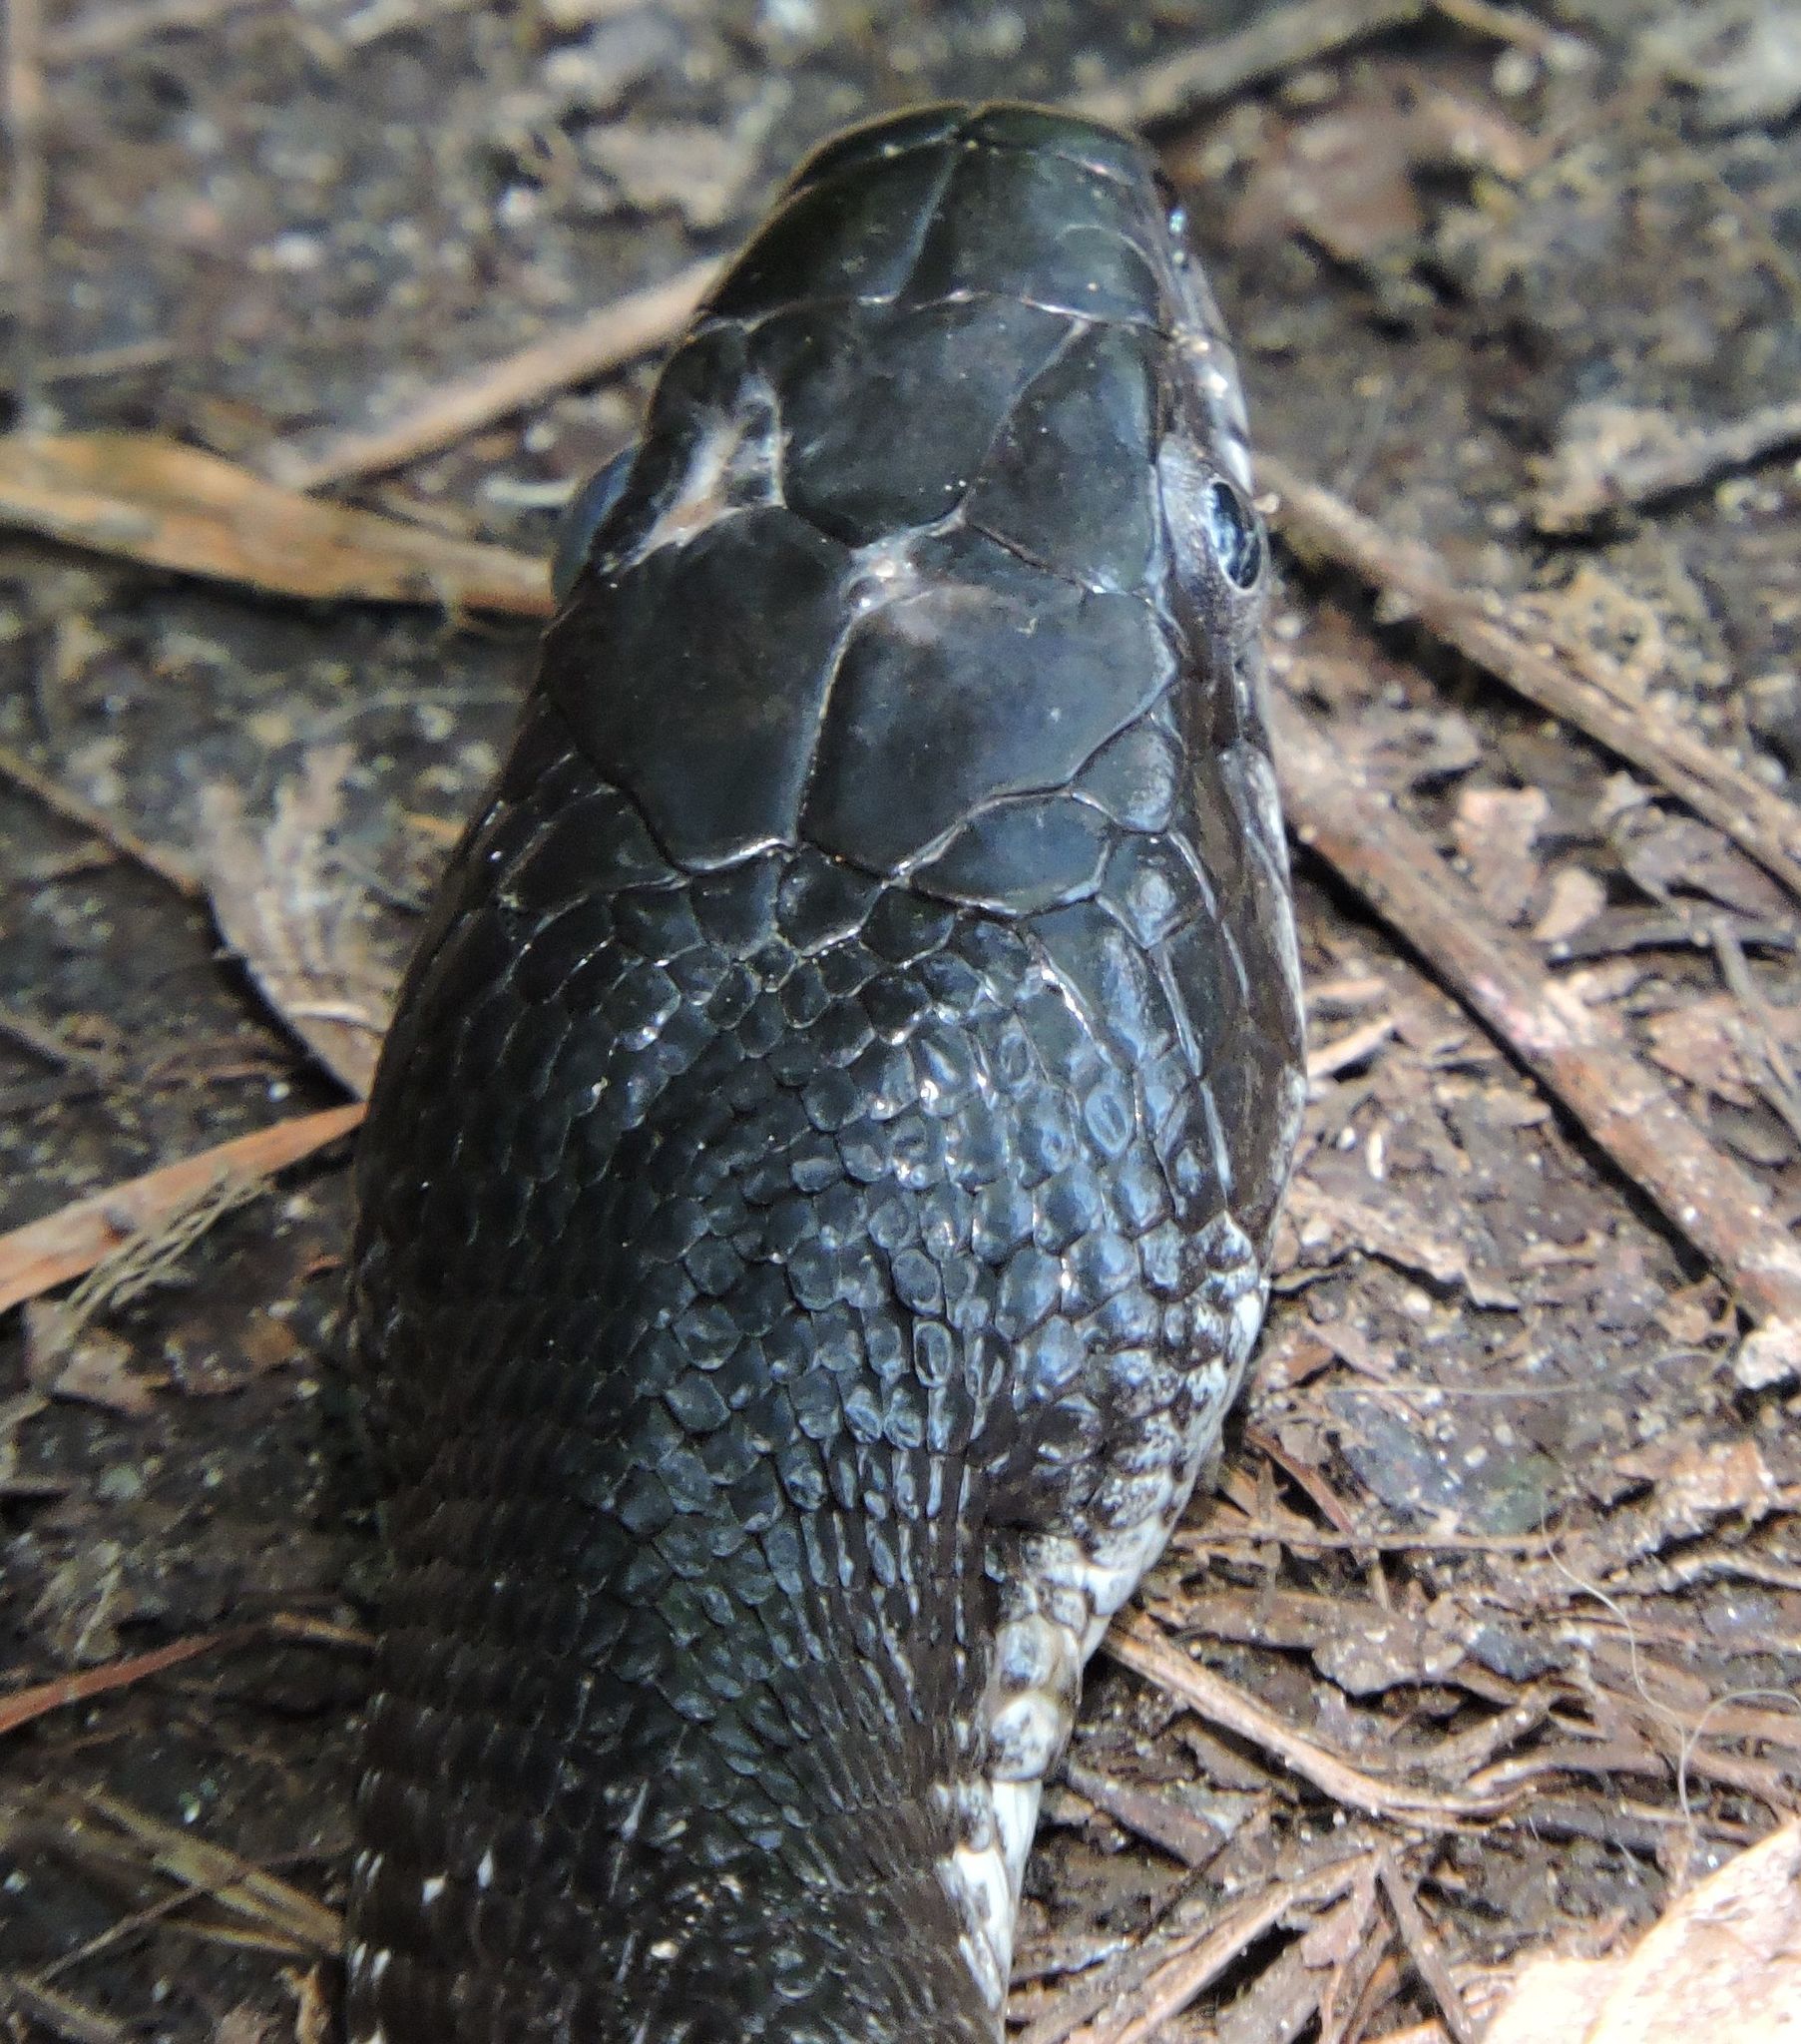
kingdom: Animalia
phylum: Chordata
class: Squamata
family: Colubridae
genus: Pantherophis
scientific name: Pantherophis alleghaniensis
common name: Eastern rat snake
